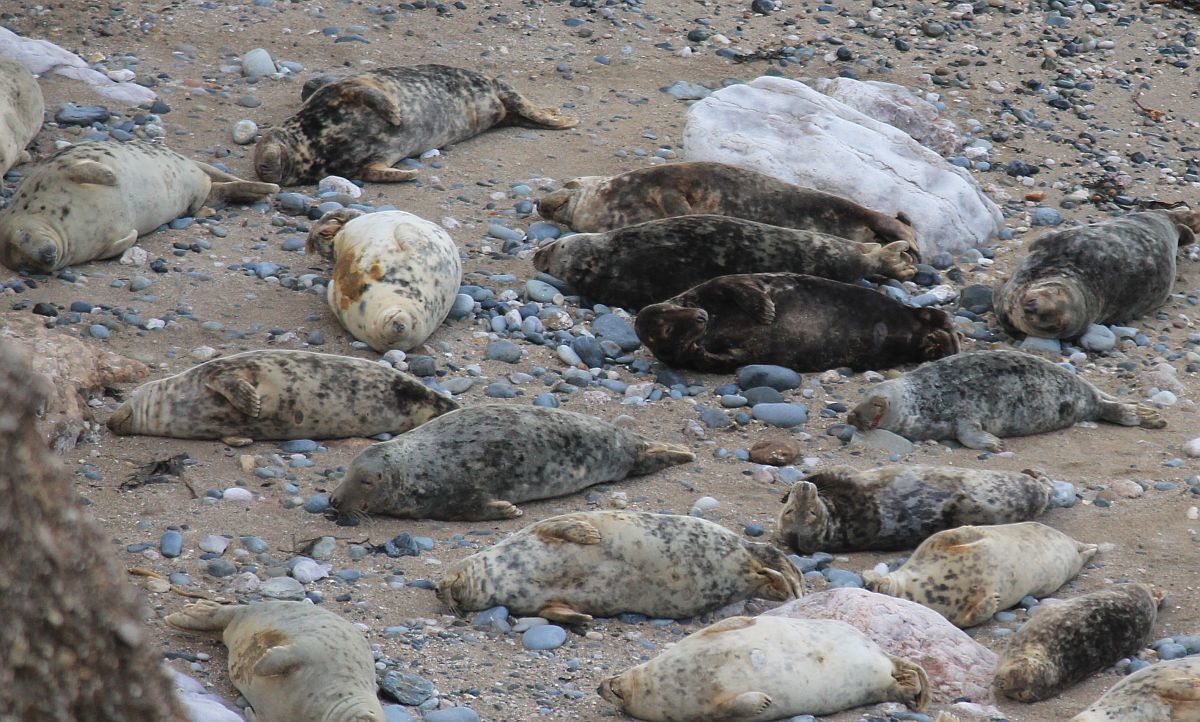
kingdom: Animalia
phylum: Chordata
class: Mammalia
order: Carnivora
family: Phocidae
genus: Halichoerus
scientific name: Halichoerus grypus
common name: Grey seal
